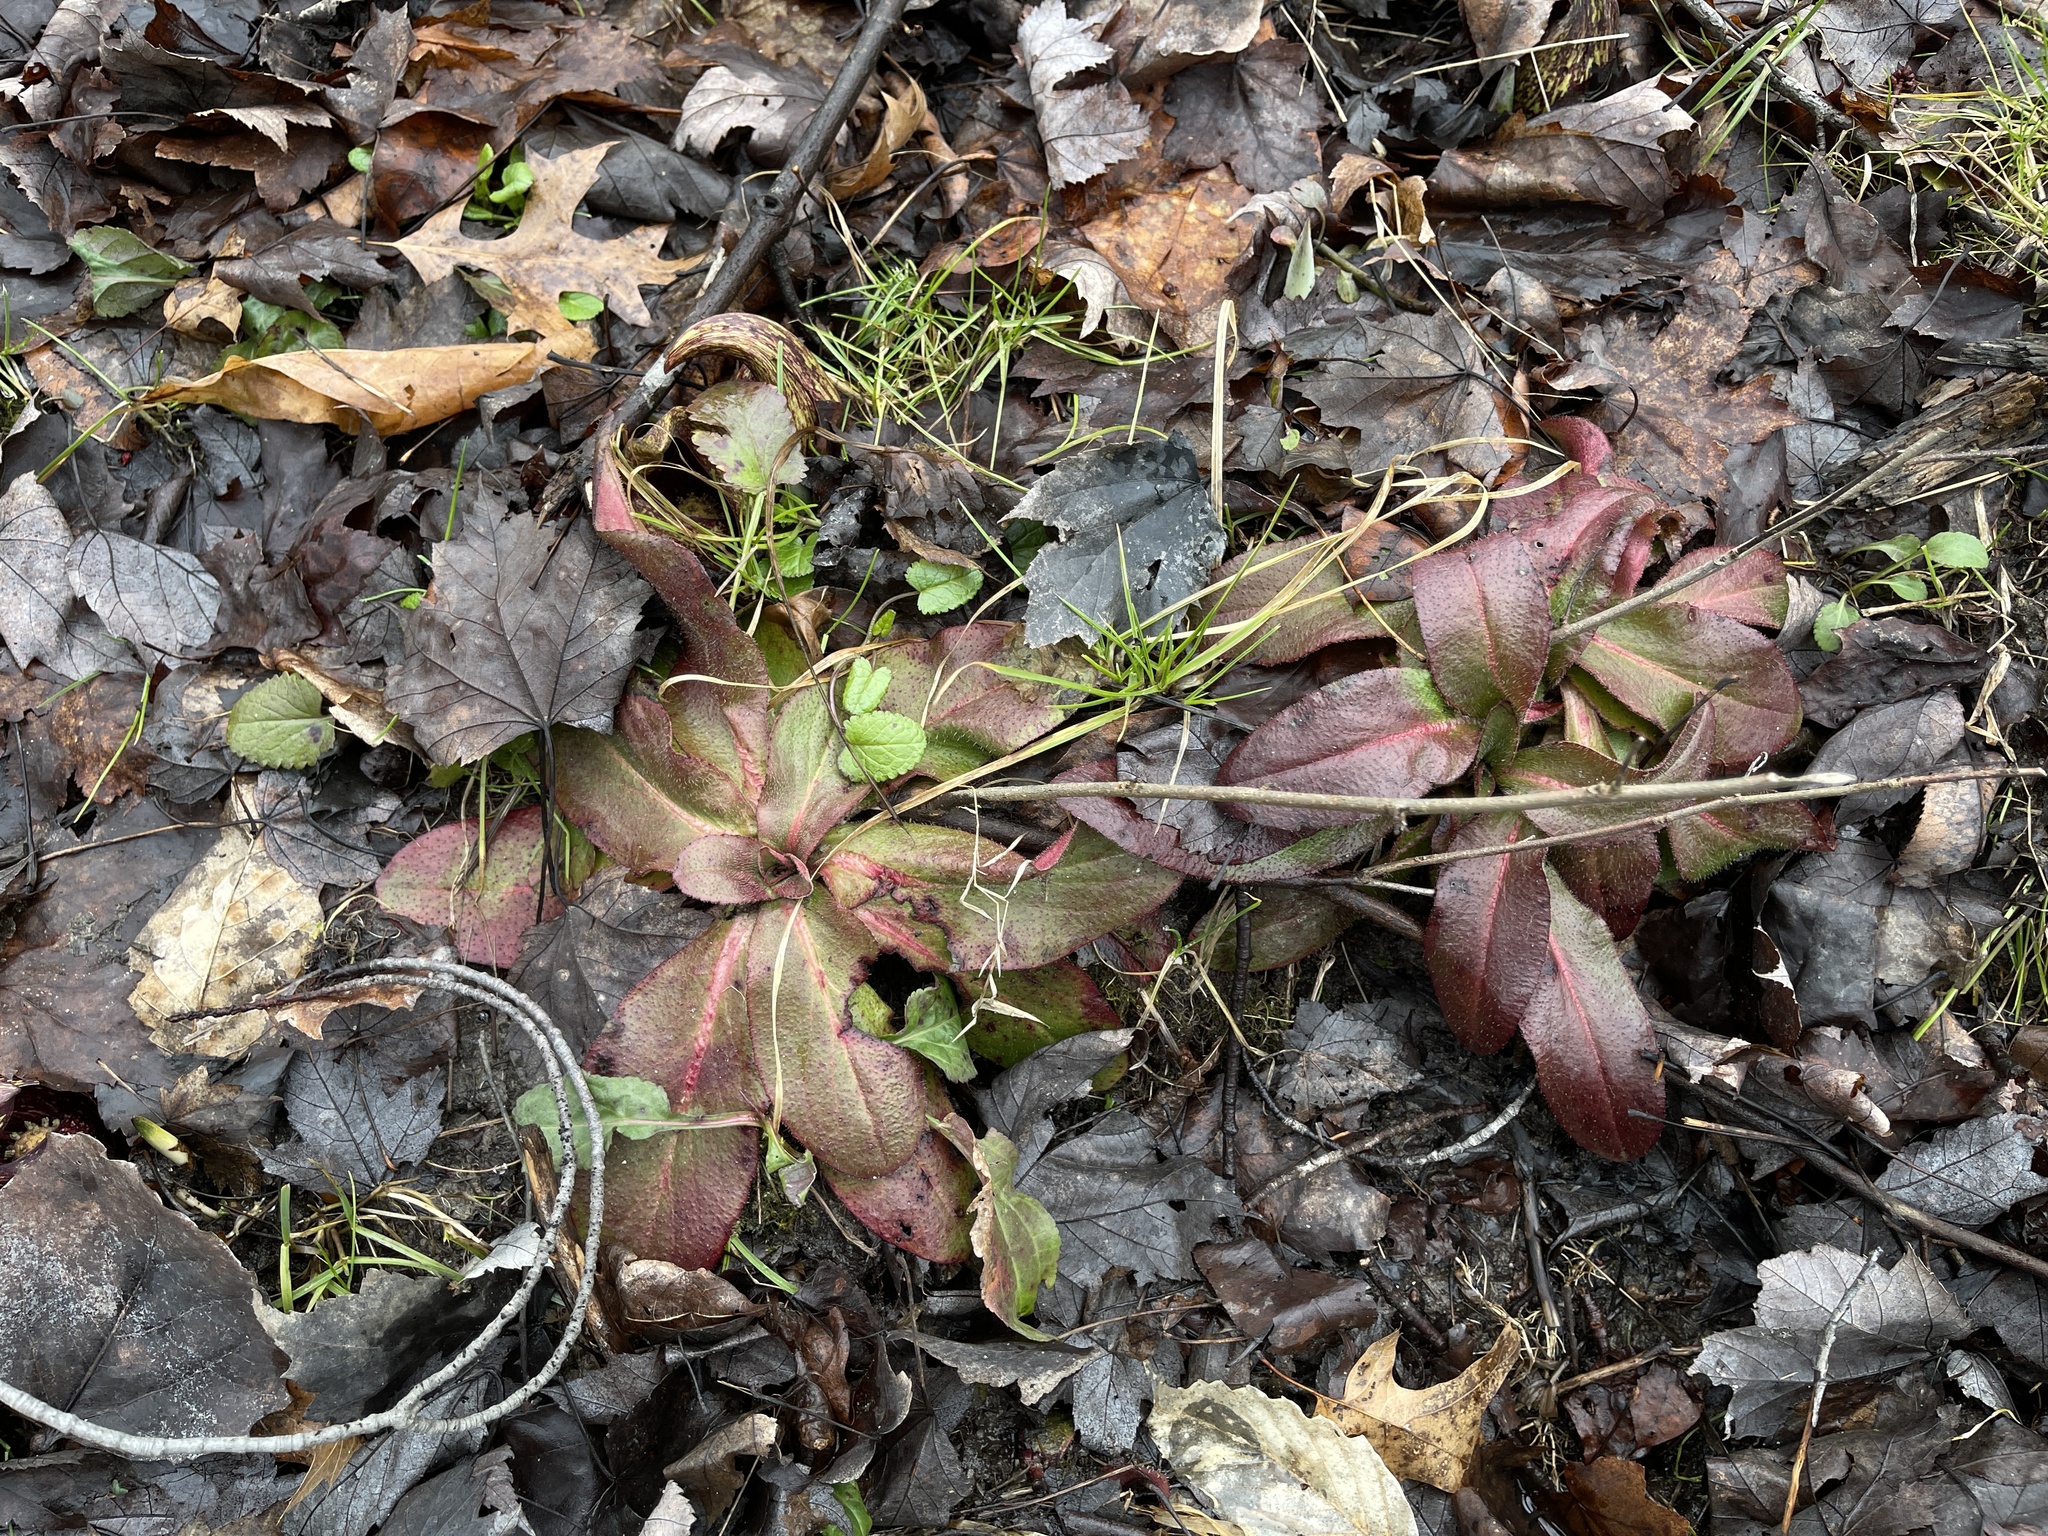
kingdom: Plantae
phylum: Tracheophyta
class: Magnoliopsida
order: Saxifragales
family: Saxifragaceae
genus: Micranthes
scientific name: Micranthes pensylvanica
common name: Marsh saxifrage
